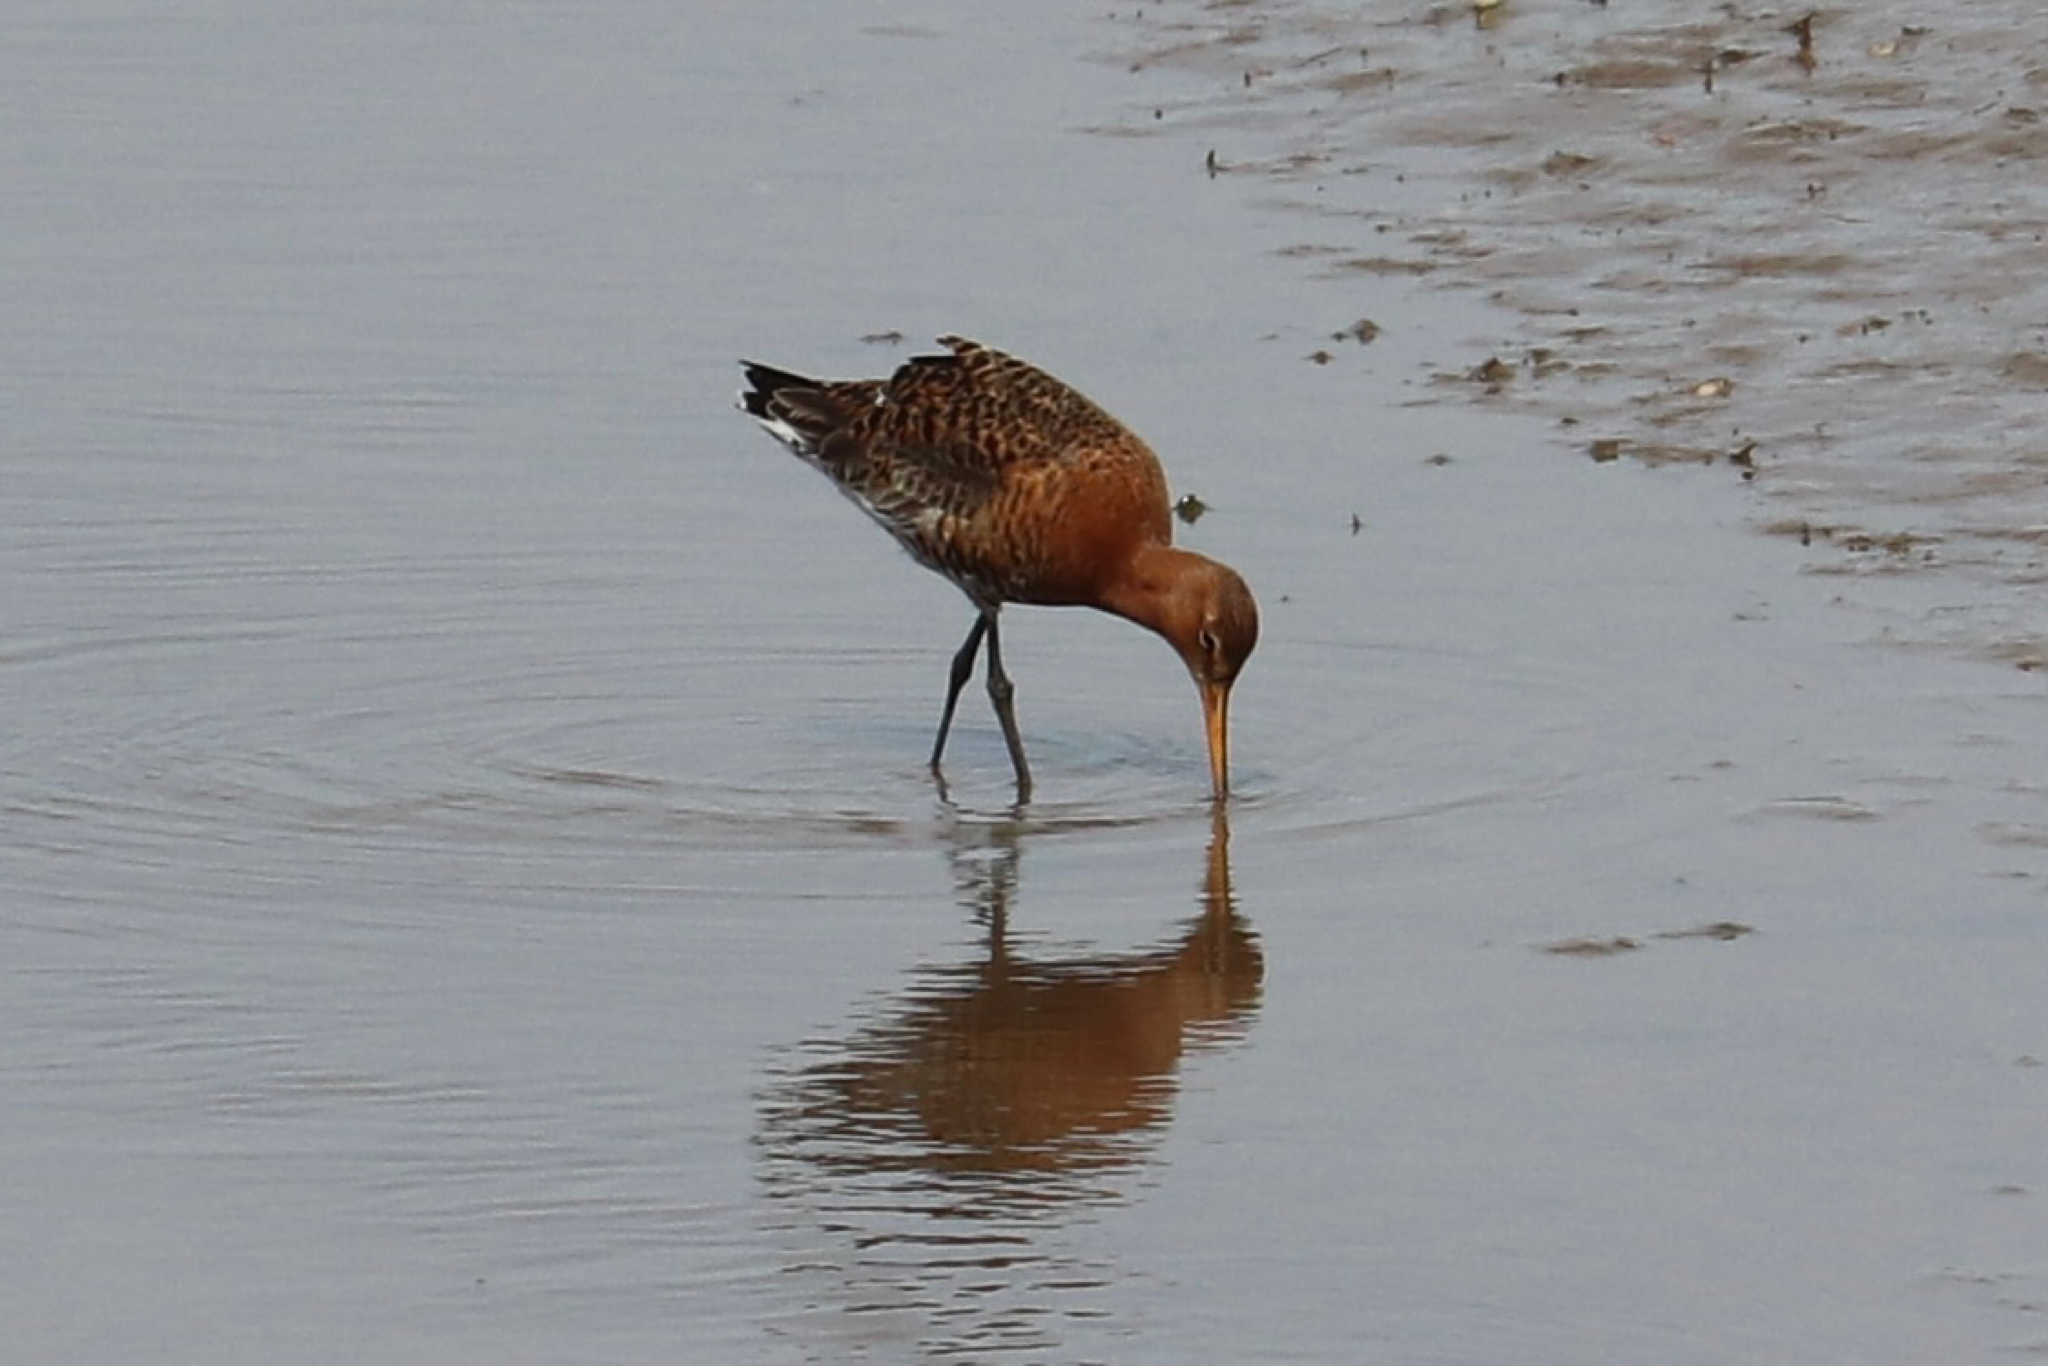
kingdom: Animalia
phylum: Chordata
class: Aves
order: Charadriiformes
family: Scolopacidae
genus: Limosa
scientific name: Limosa limosa
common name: Black-tailed godwit
